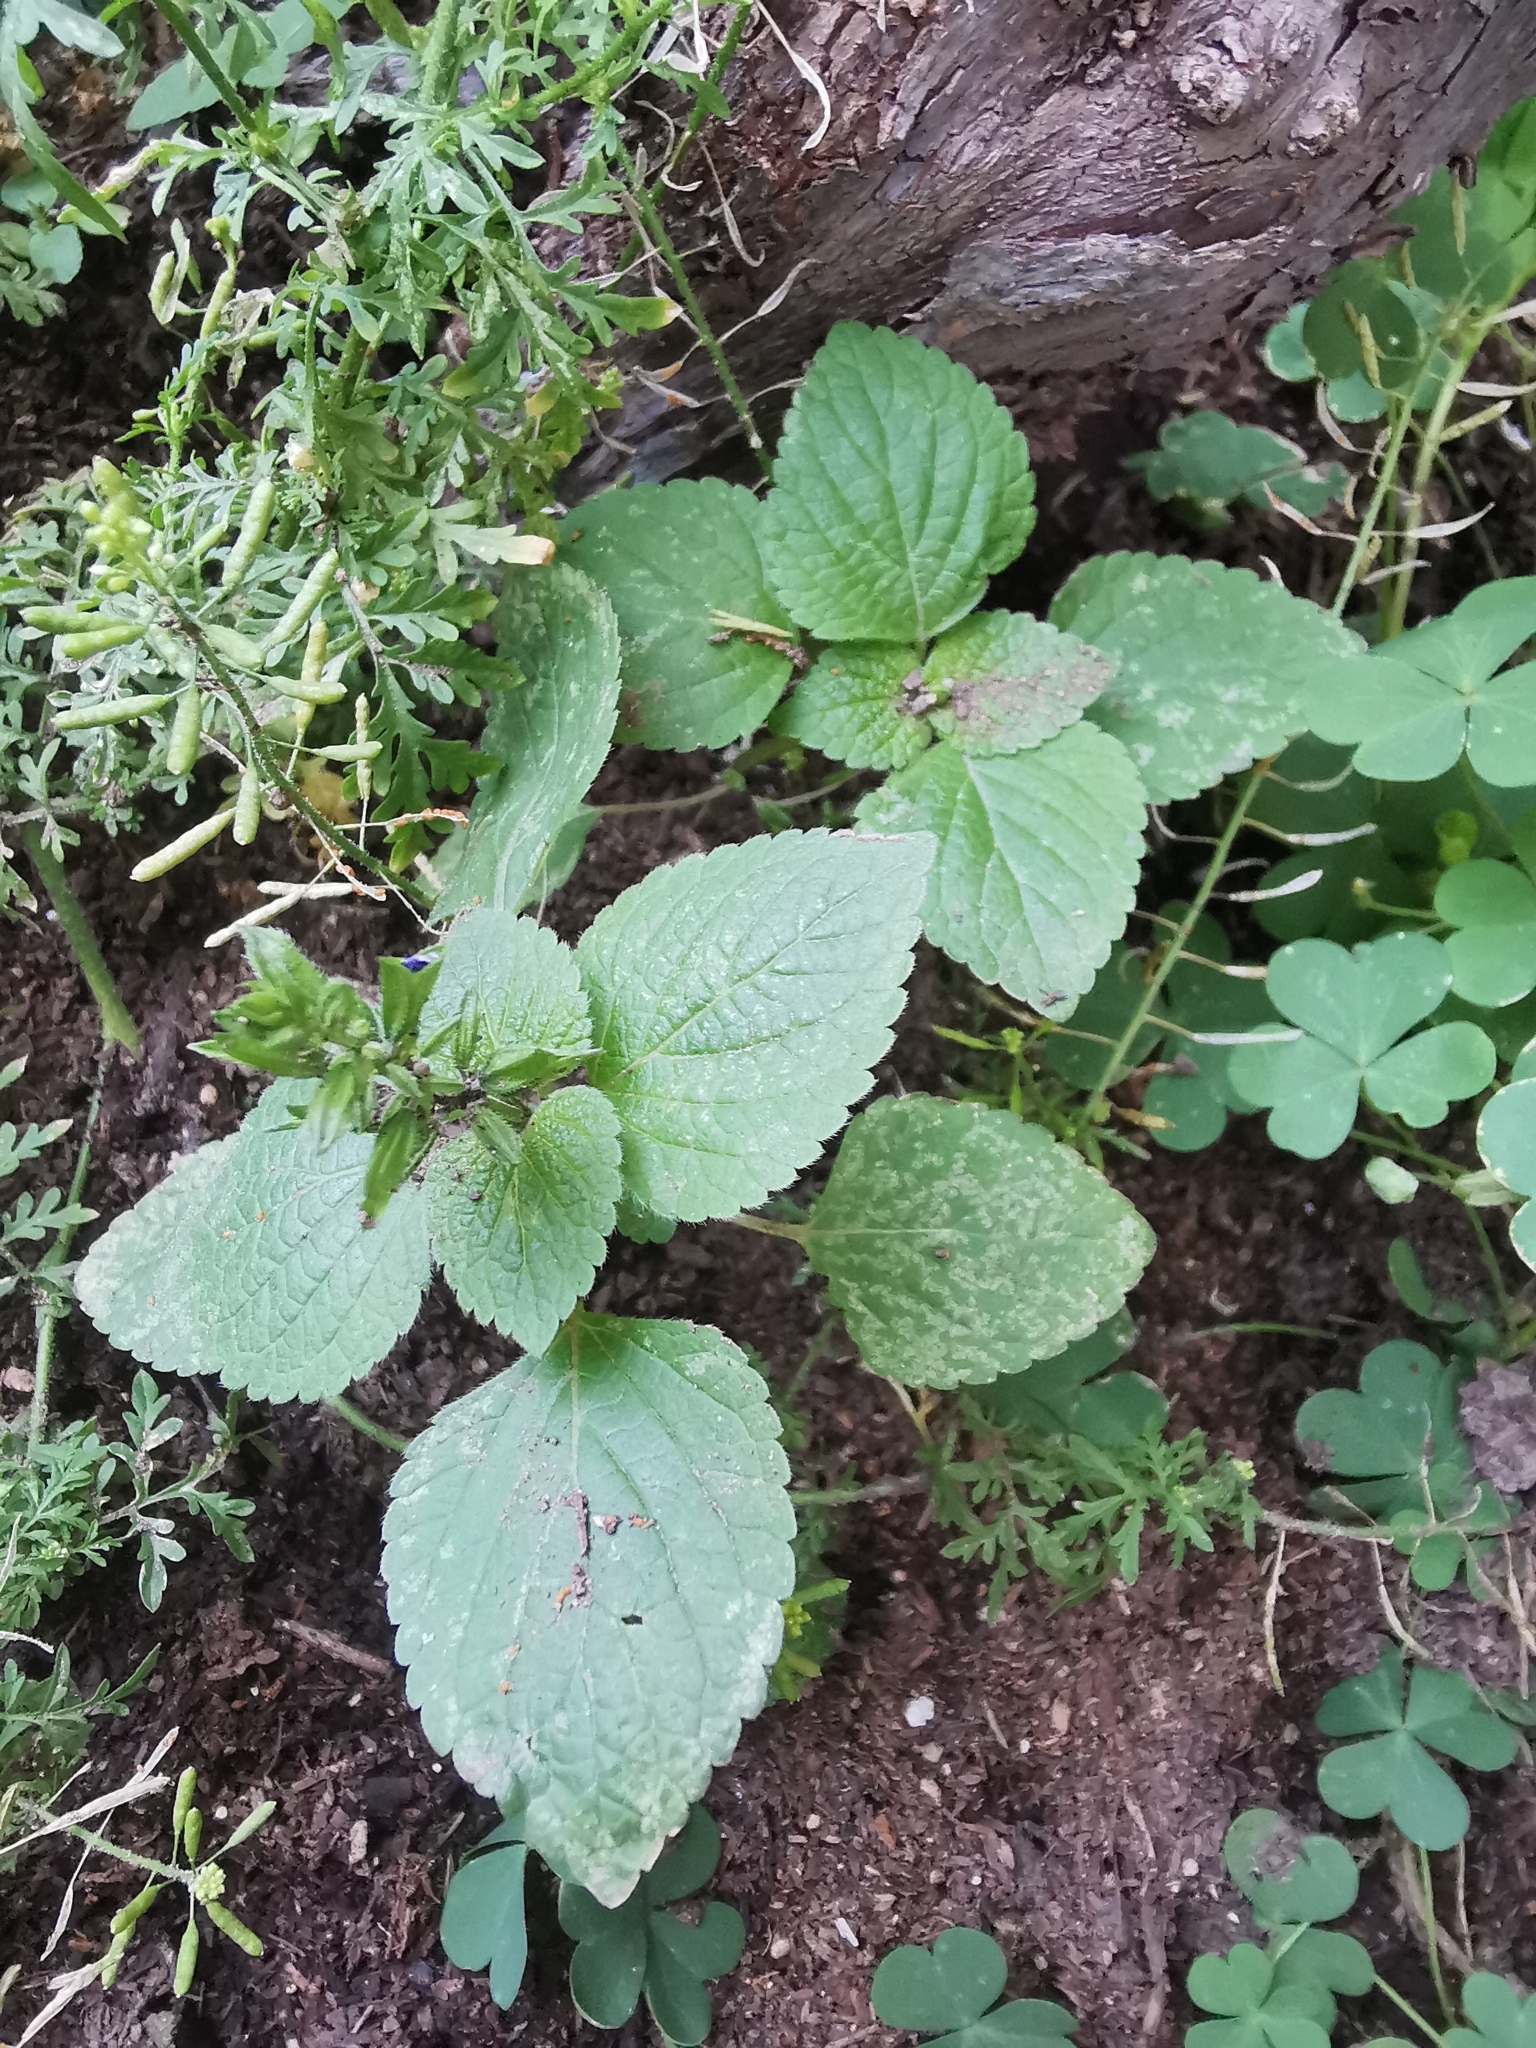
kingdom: Plantae
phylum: Tracheophyta
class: Magnoliopsida
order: Lamiales
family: Lamiaceae
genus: Salvia
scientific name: Salvia tiliifolia
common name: Lindenleaf sage
